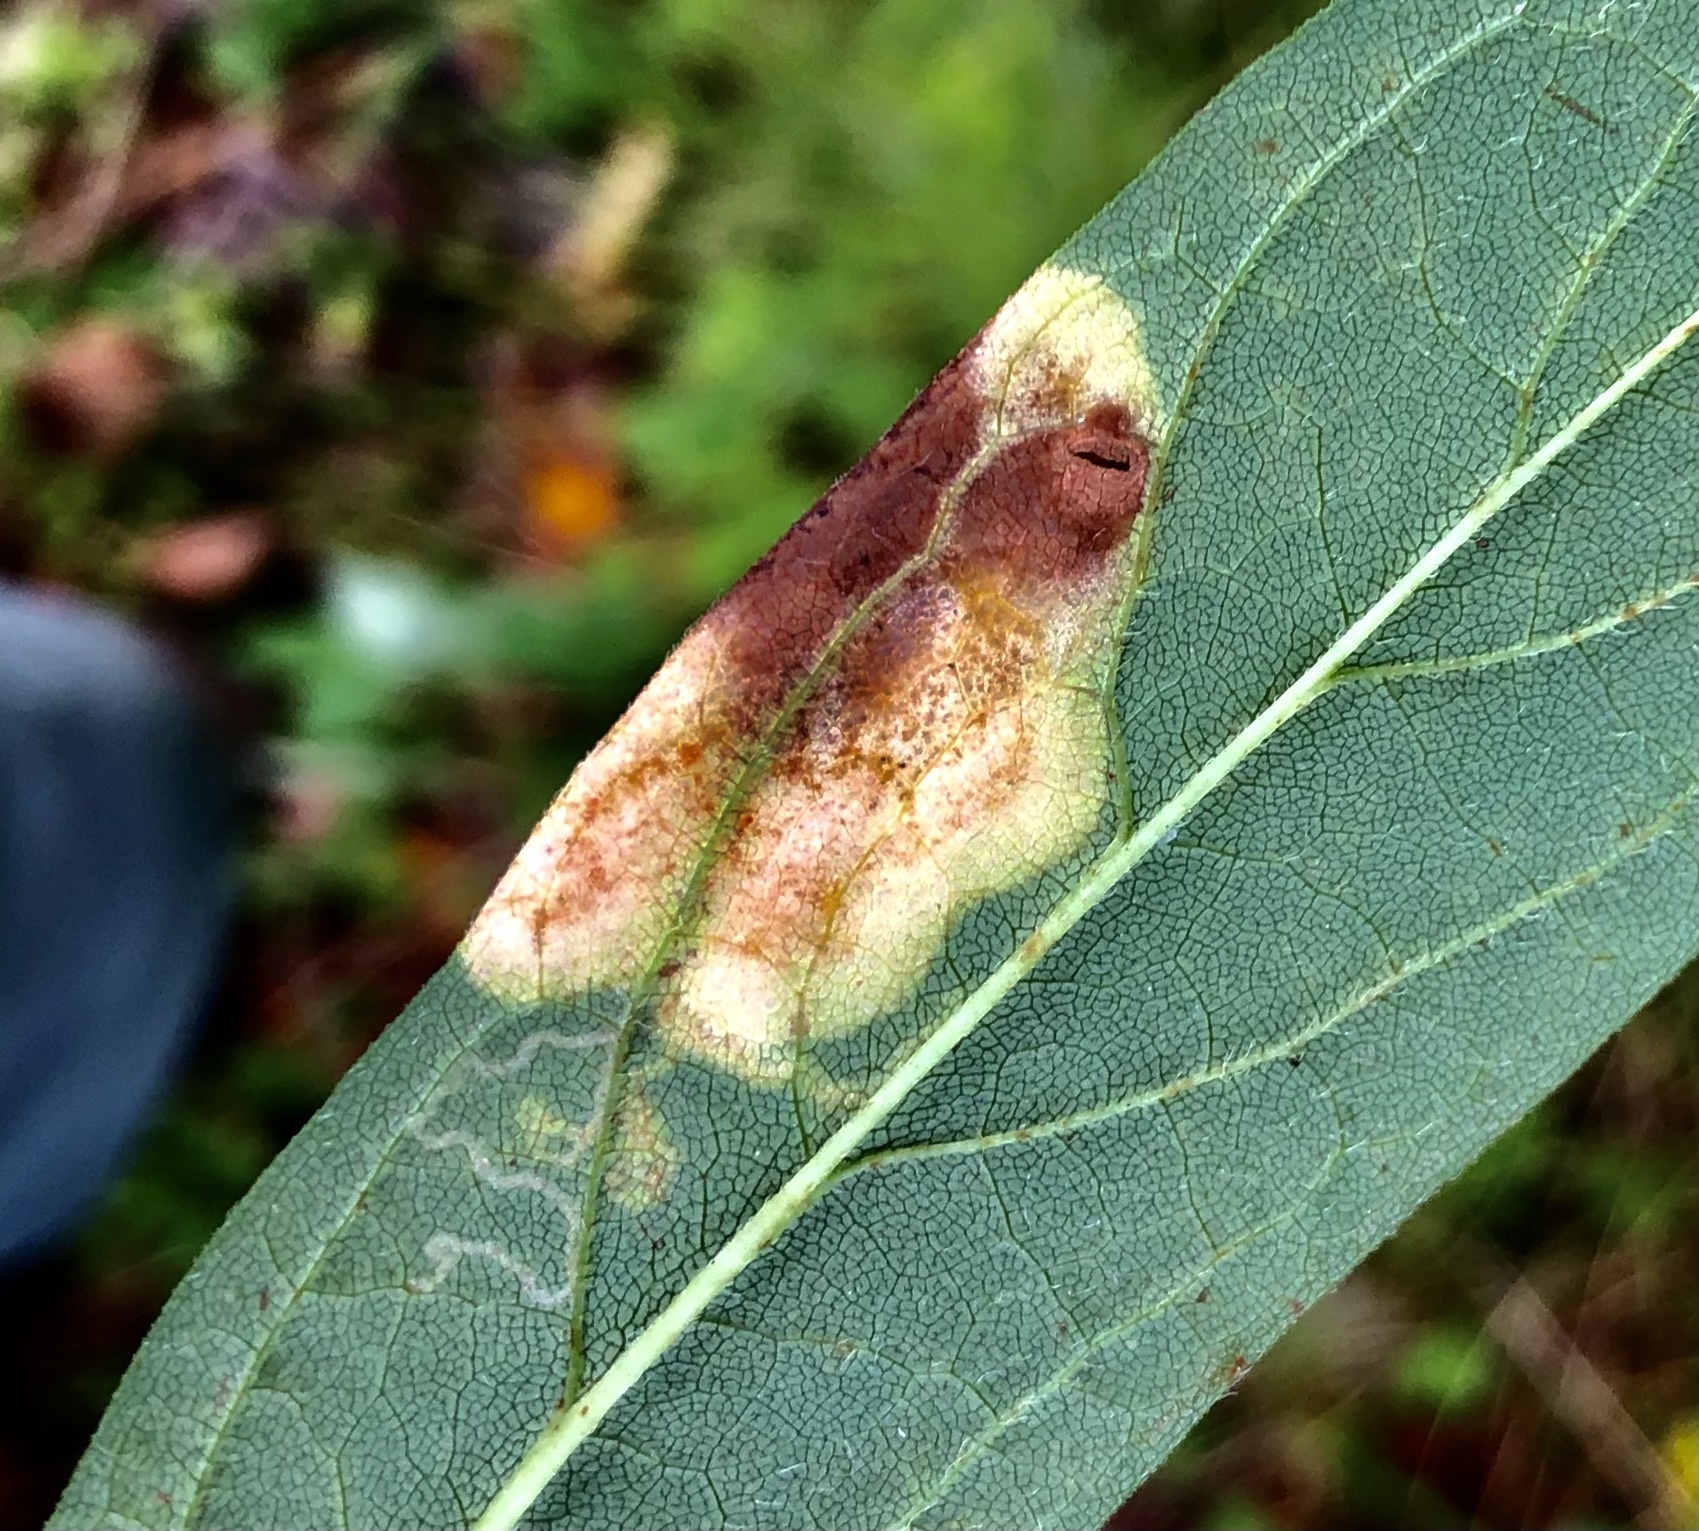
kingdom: Animalia
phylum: Arthropoda
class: Insecta
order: Lepidoptera
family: Gracillariidae
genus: Acrocercops
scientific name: Acrocercops astericola
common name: Aster tentiform blotchminer
